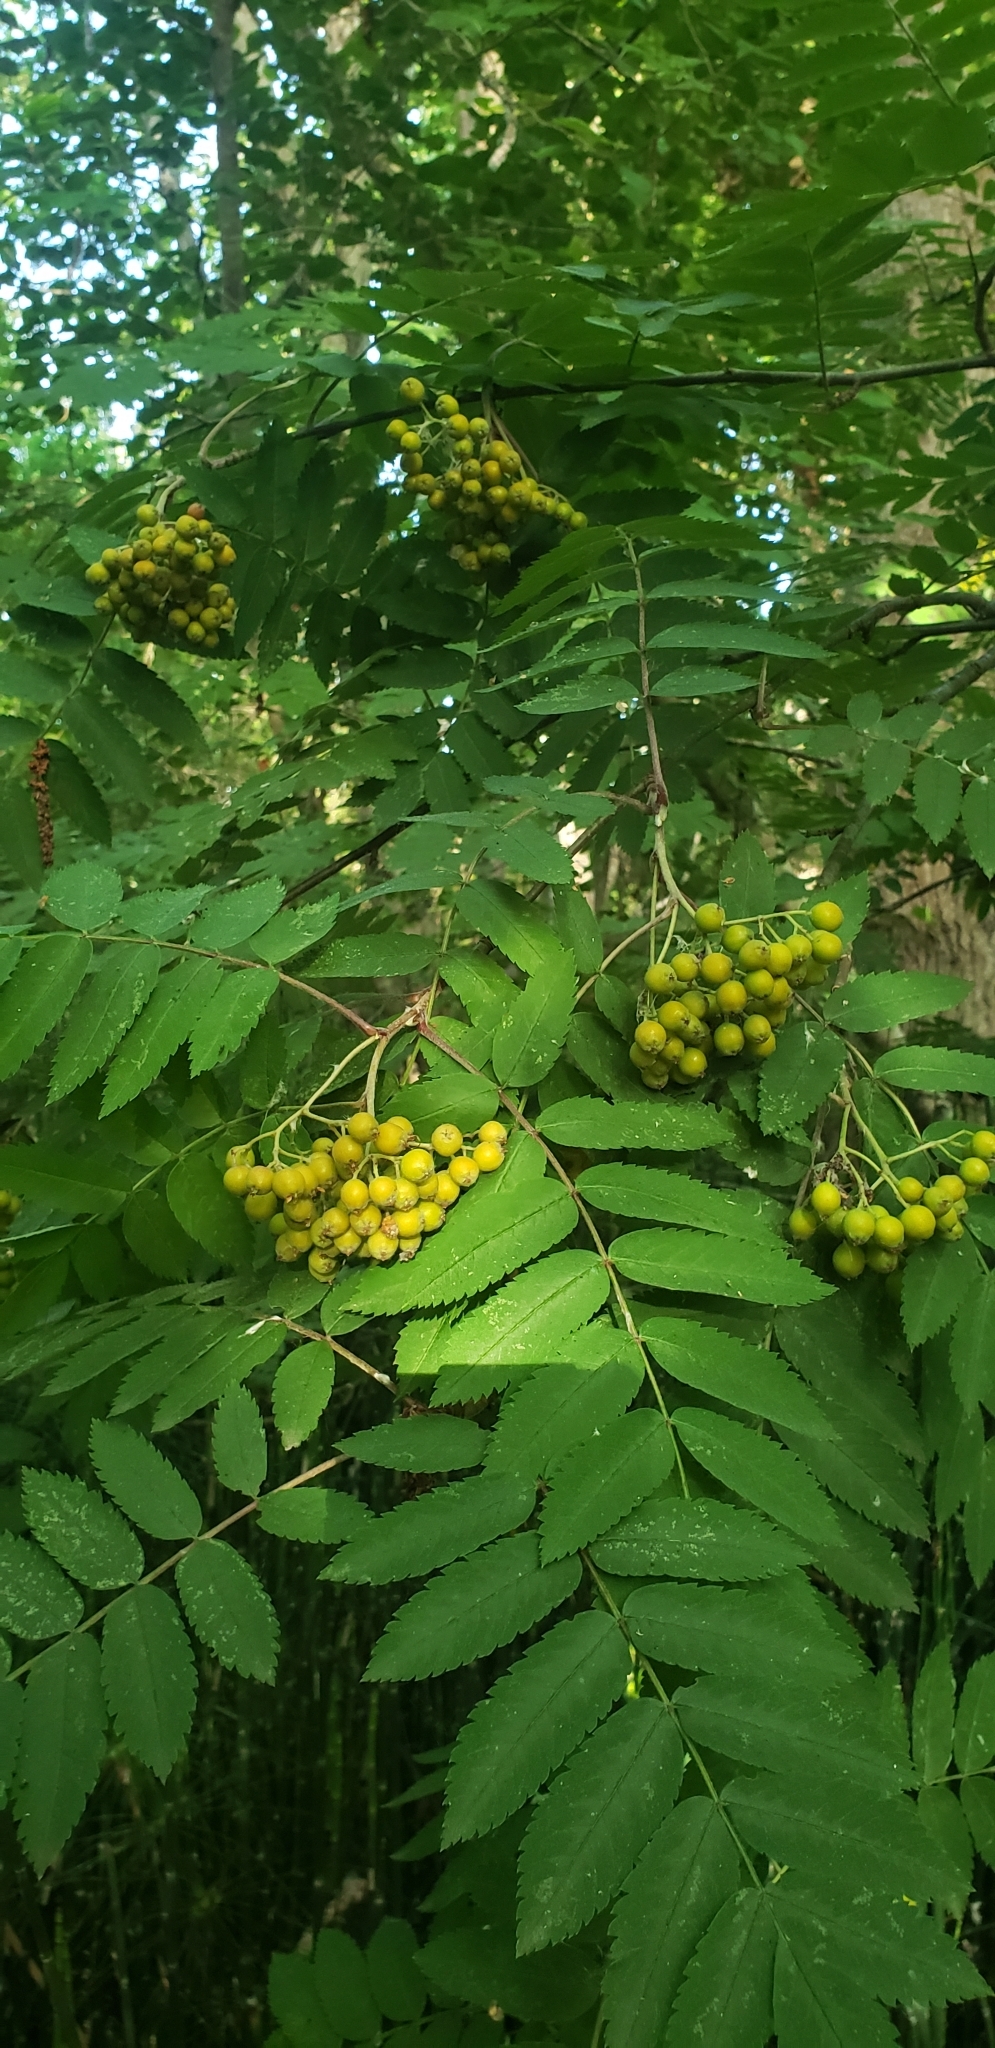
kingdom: Plantae
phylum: Tracheophyta
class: Magnoliopsida
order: Rosales
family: Rosaceae
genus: Sorbus
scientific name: Sorbus aucuparia
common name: Rowan
